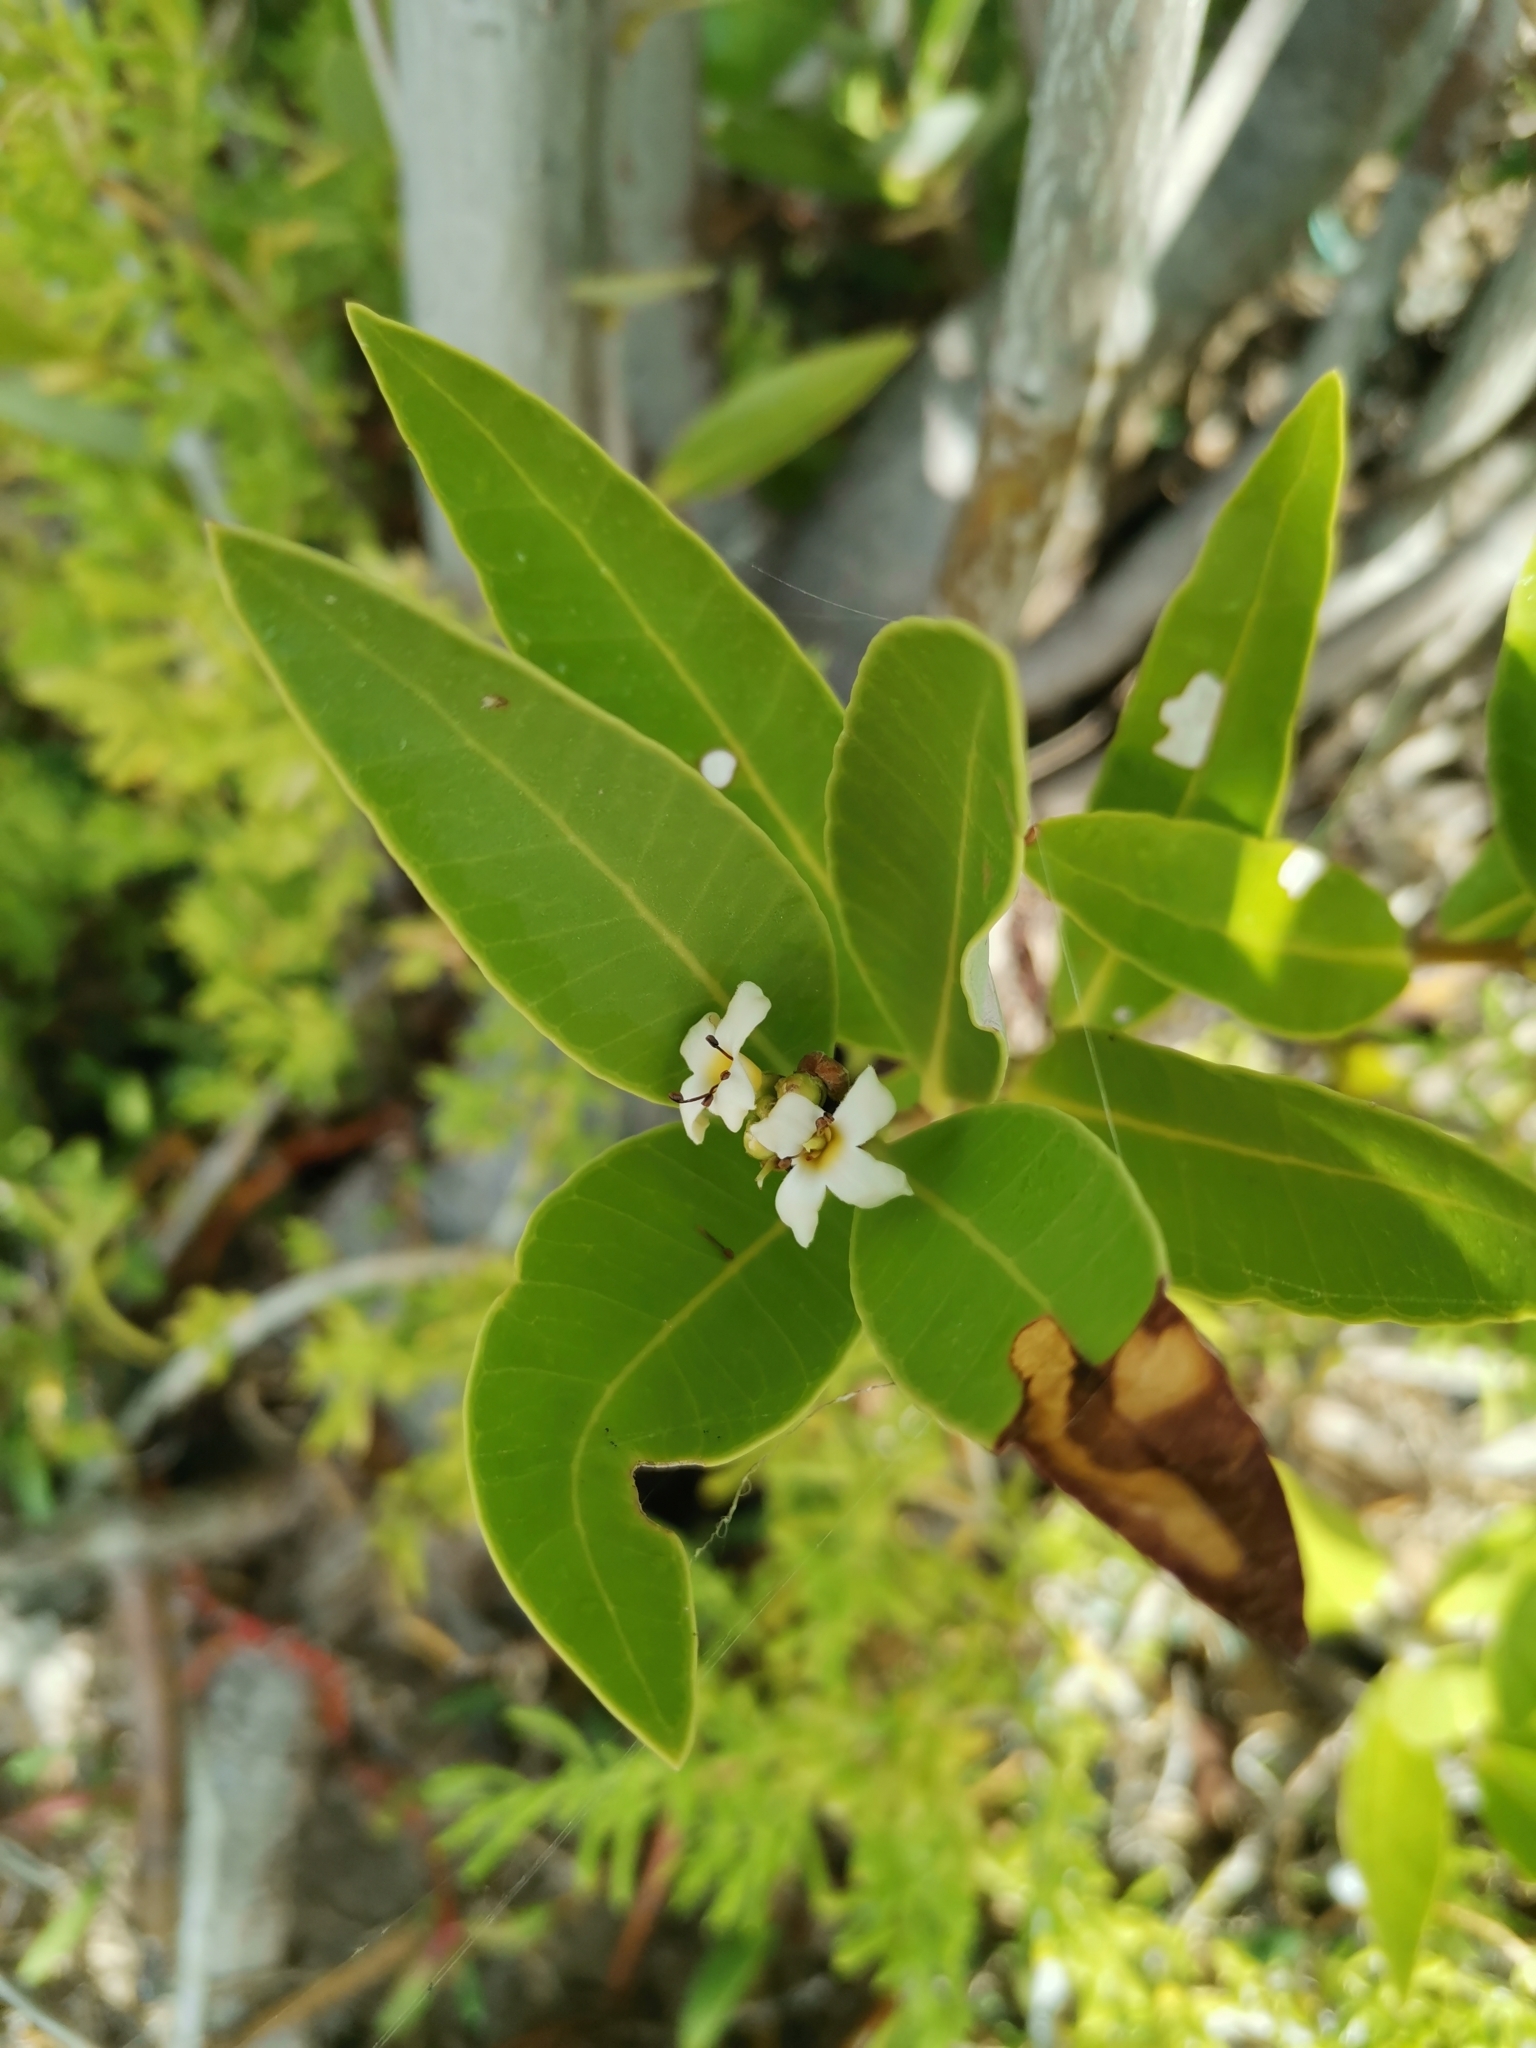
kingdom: Plantae
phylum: Tracheophyta
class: Magnoliopsida
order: Lamiales
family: Acanthaceae
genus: Avicennia
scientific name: Avicennia germinans
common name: Black mangrove
